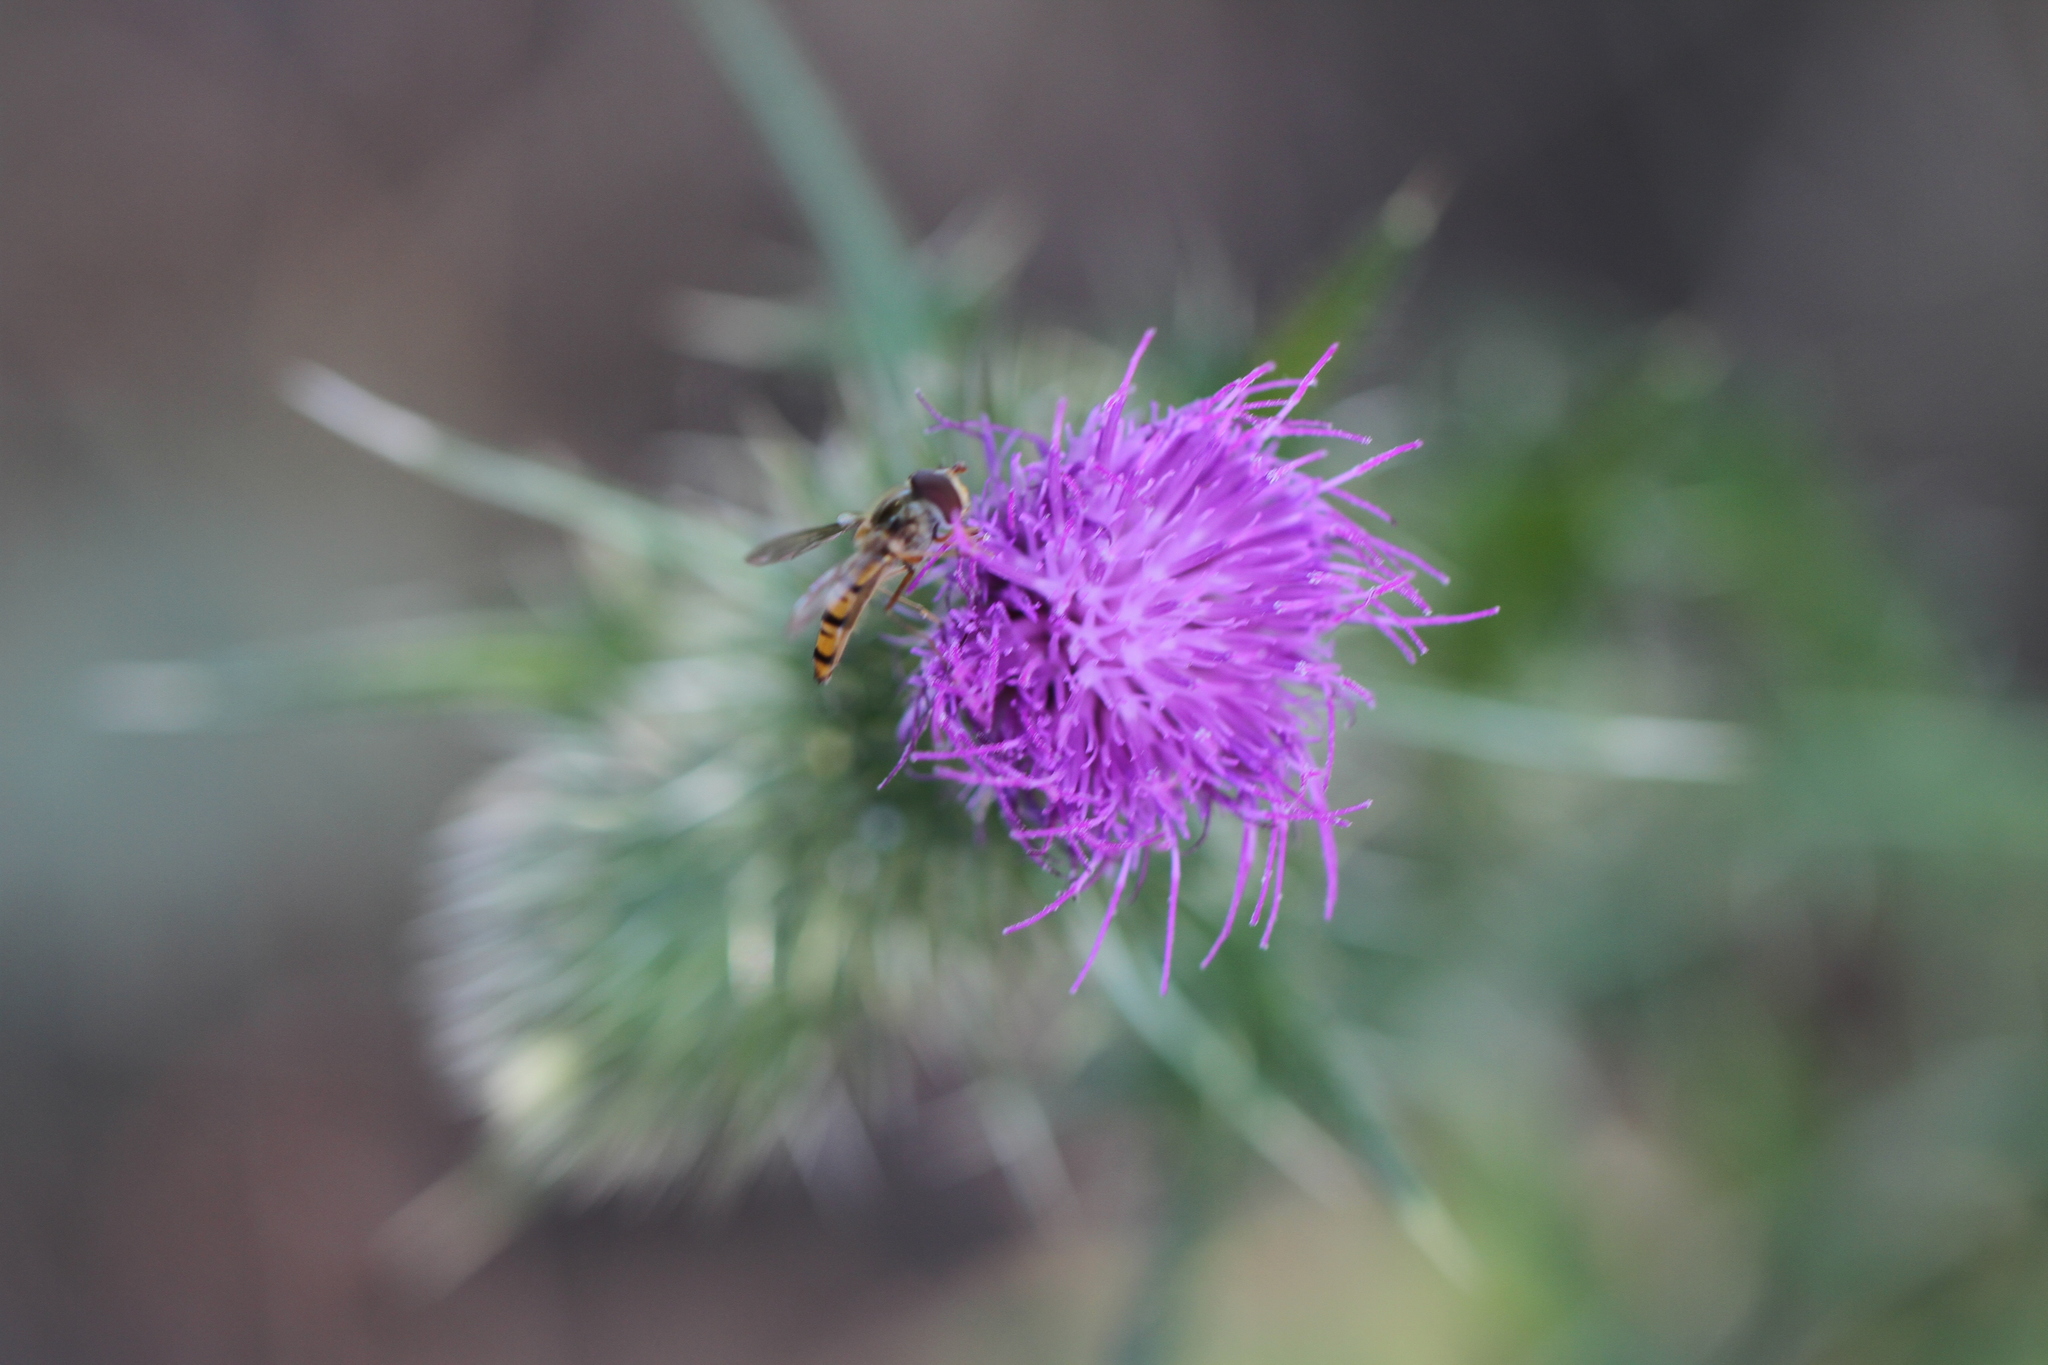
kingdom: Animalia
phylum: Arthropoda
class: Insecta
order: Diptera
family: Syrphidae
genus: Episyrphus
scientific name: Episyrphus balteatus
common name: Marmalade hoverfly
